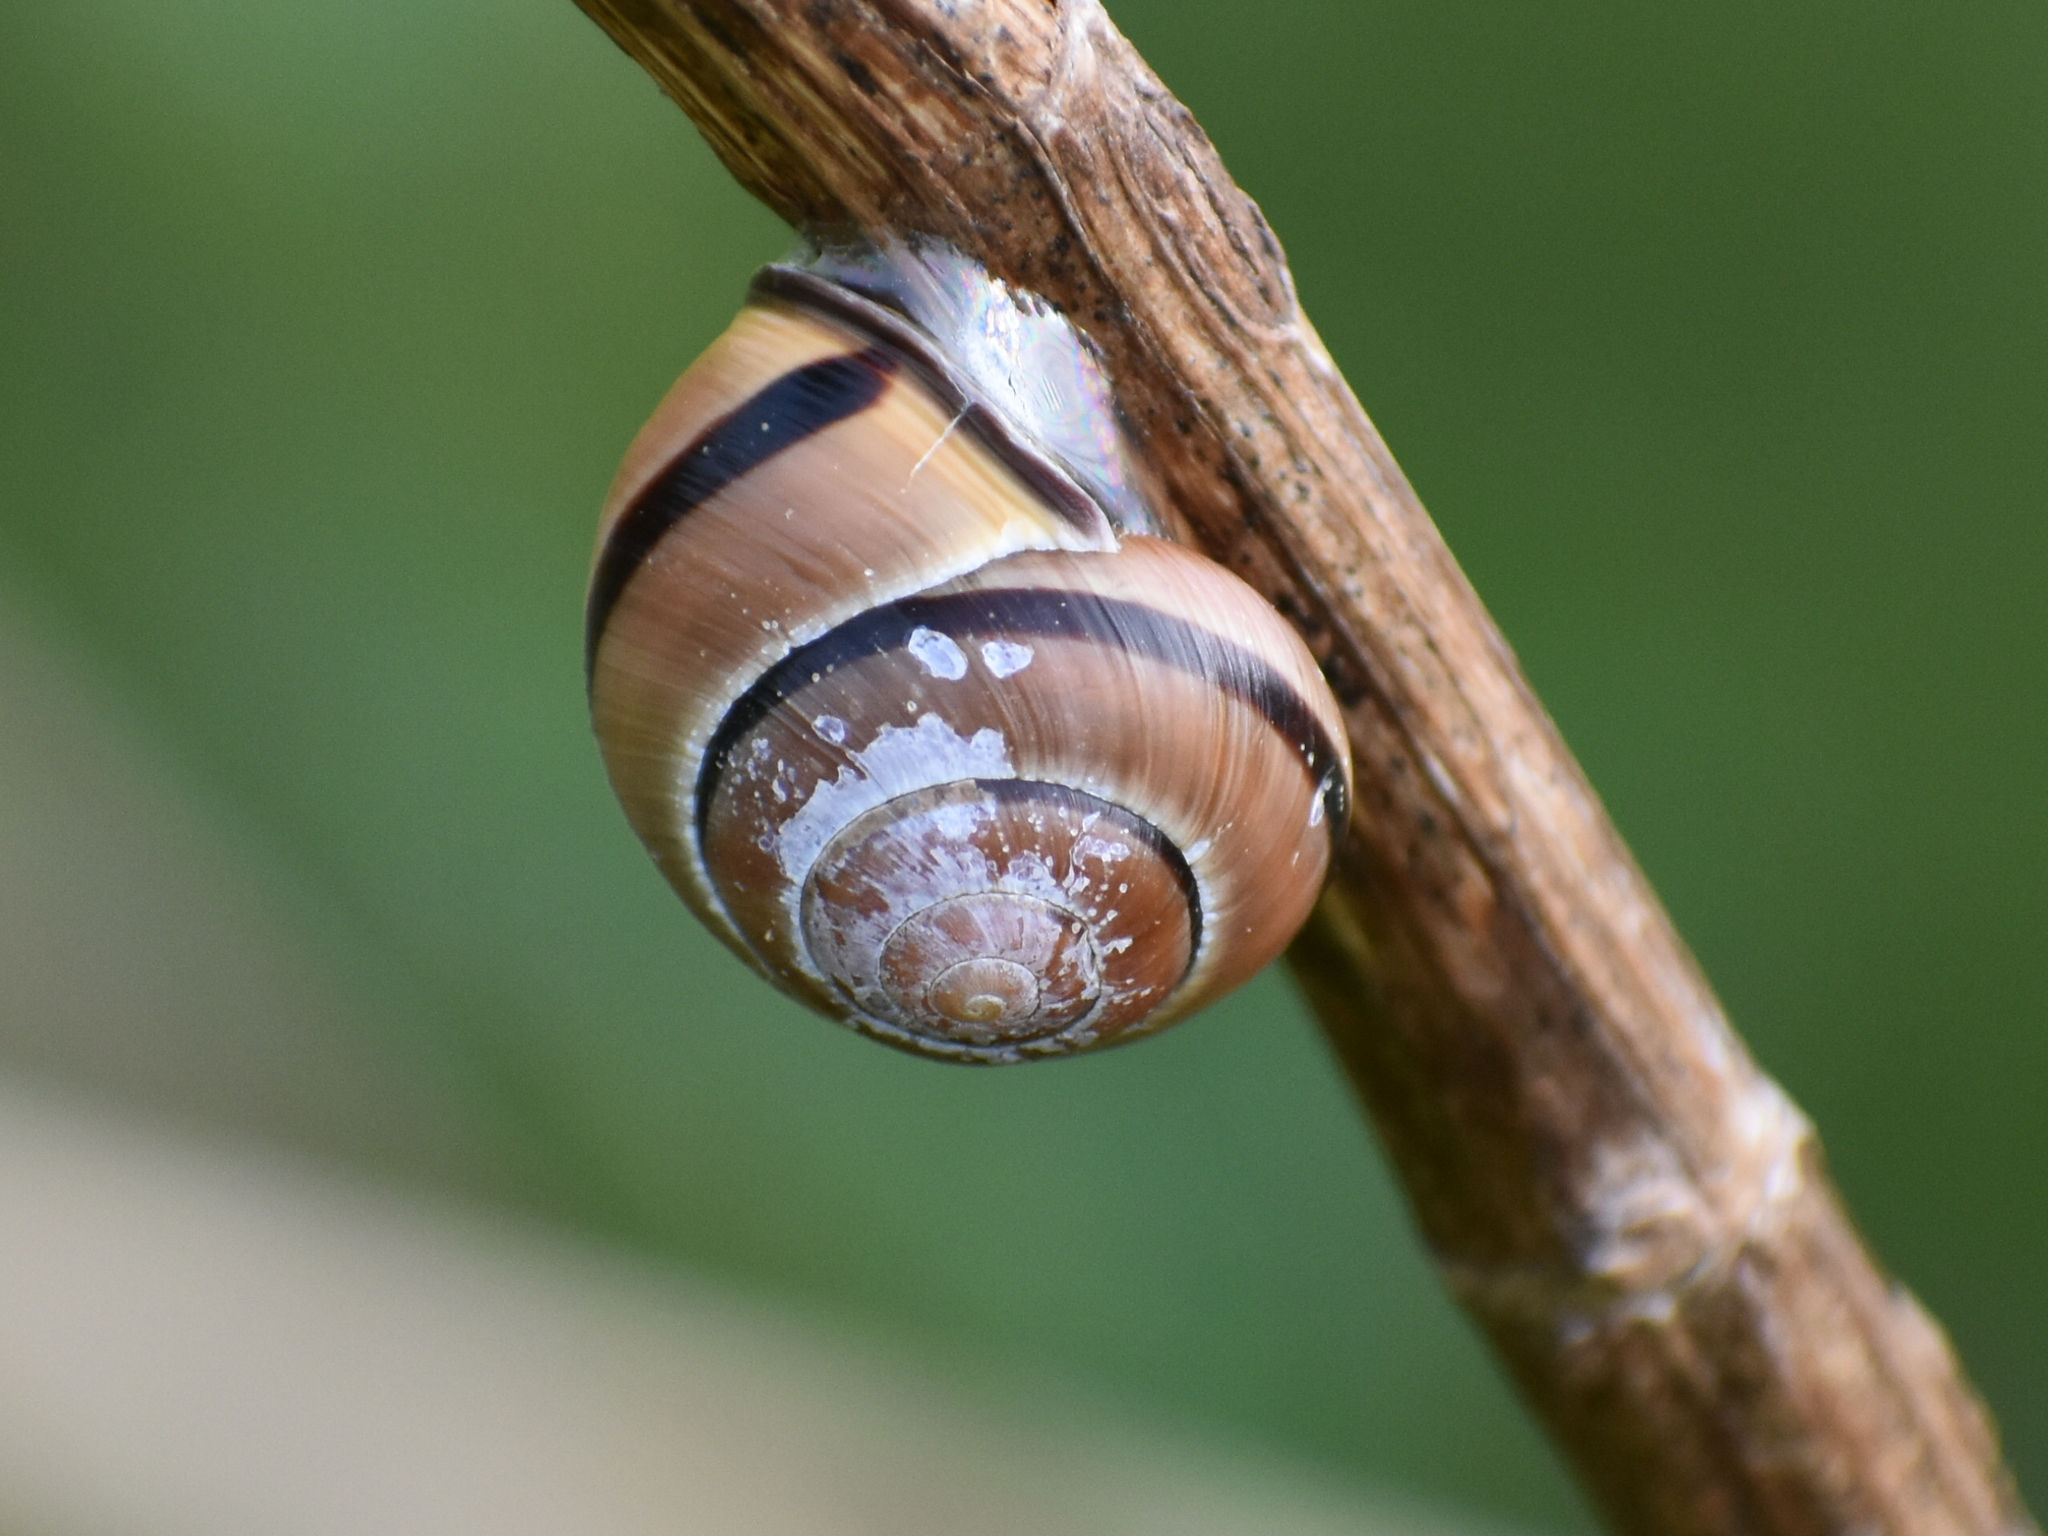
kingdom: Animalia
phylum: Mollusca
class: Gastropoda
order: Stylommatophora
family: Helicidae
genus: Cepaea
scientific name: Cepaea nemoralis
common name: Grovesnail
